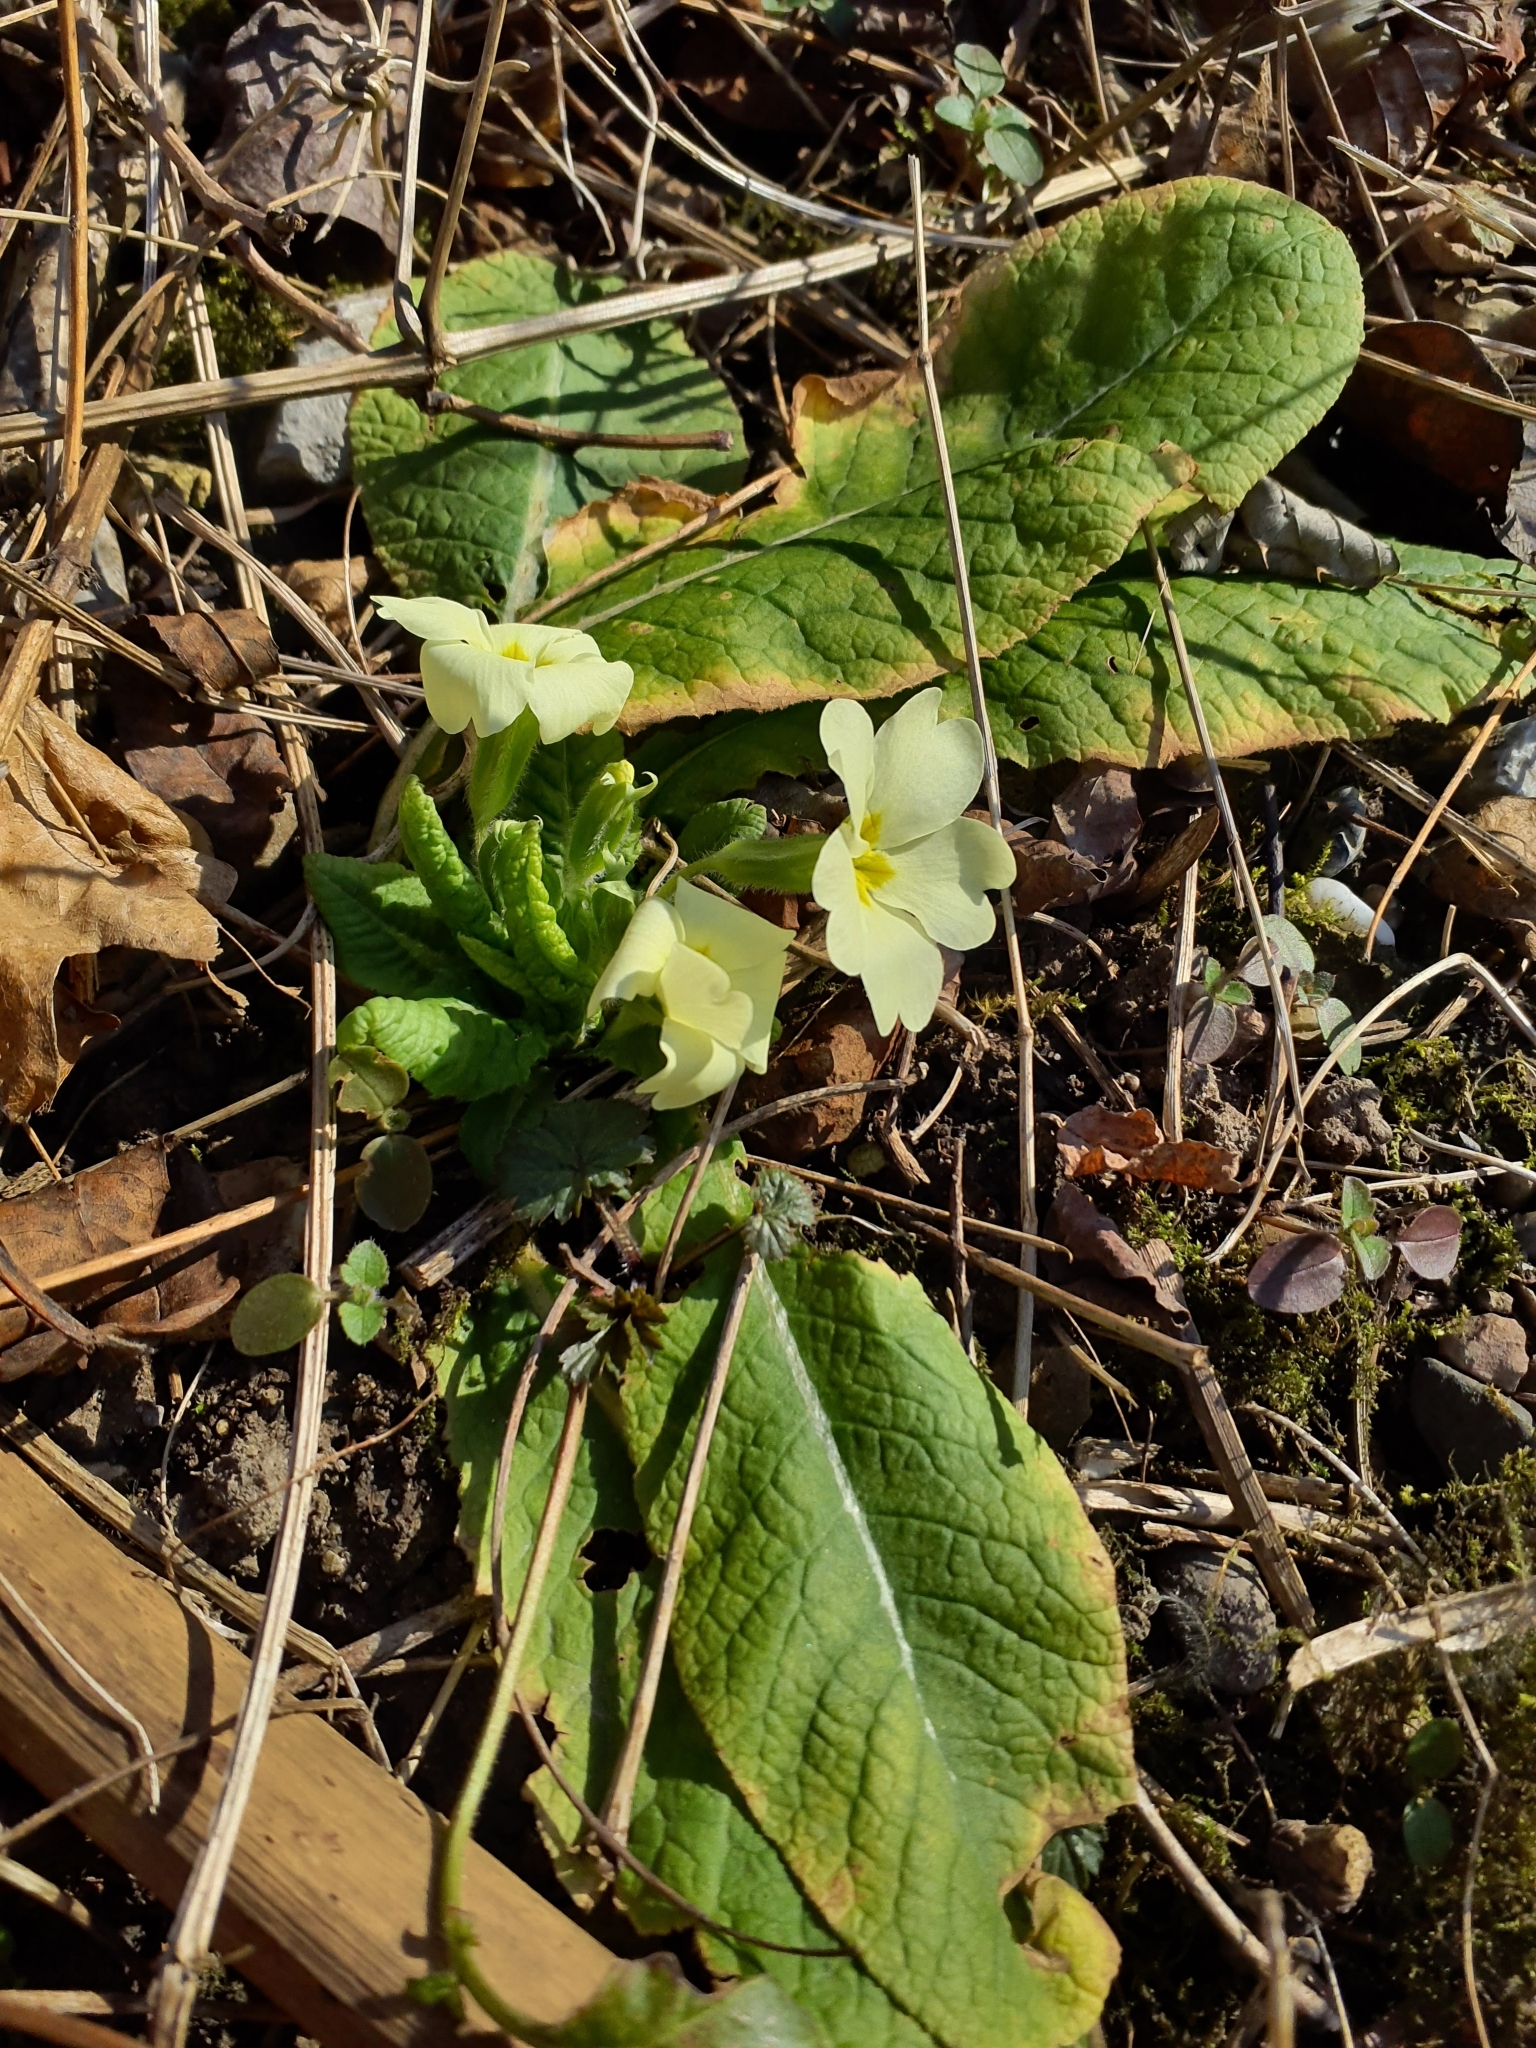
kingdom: Plantae
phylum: Tracheophyta
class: Magnoliopsida
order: Ericales
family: Primulaceae
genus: Primula
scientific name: Primula vulgaris
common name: Primrose
